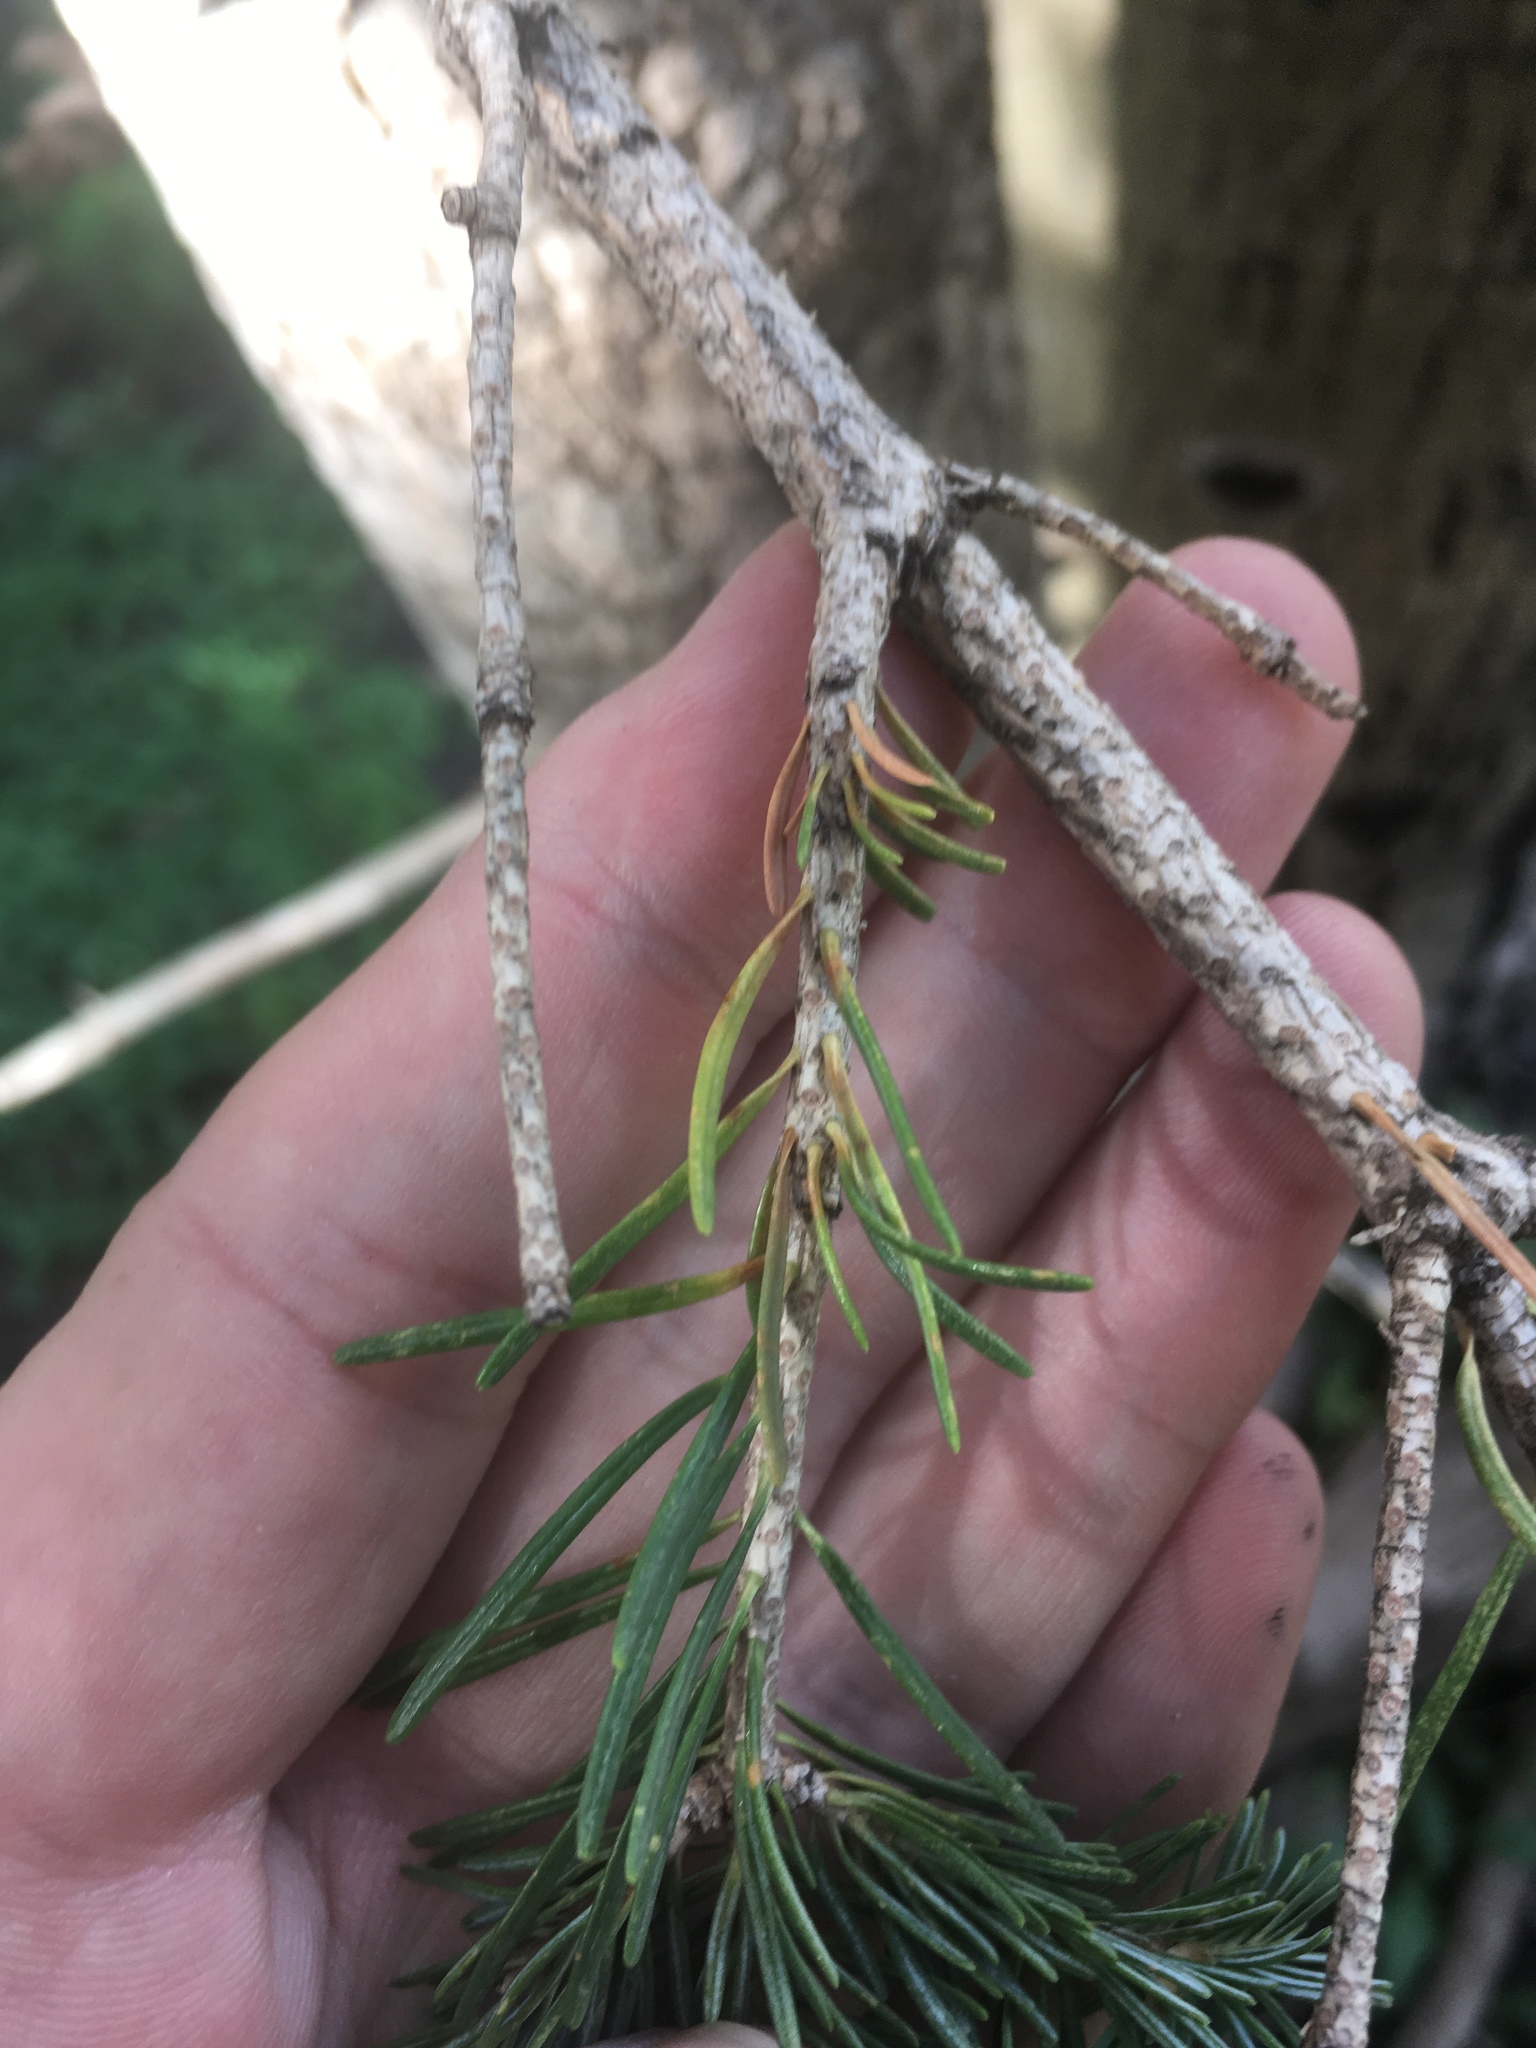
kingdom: Plantae
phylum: Tracheophyta
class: Pinopsida
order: Pinales
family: Pinaceae
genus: Abies
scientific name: Abies lasiocarpa
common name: Subalpine fir
